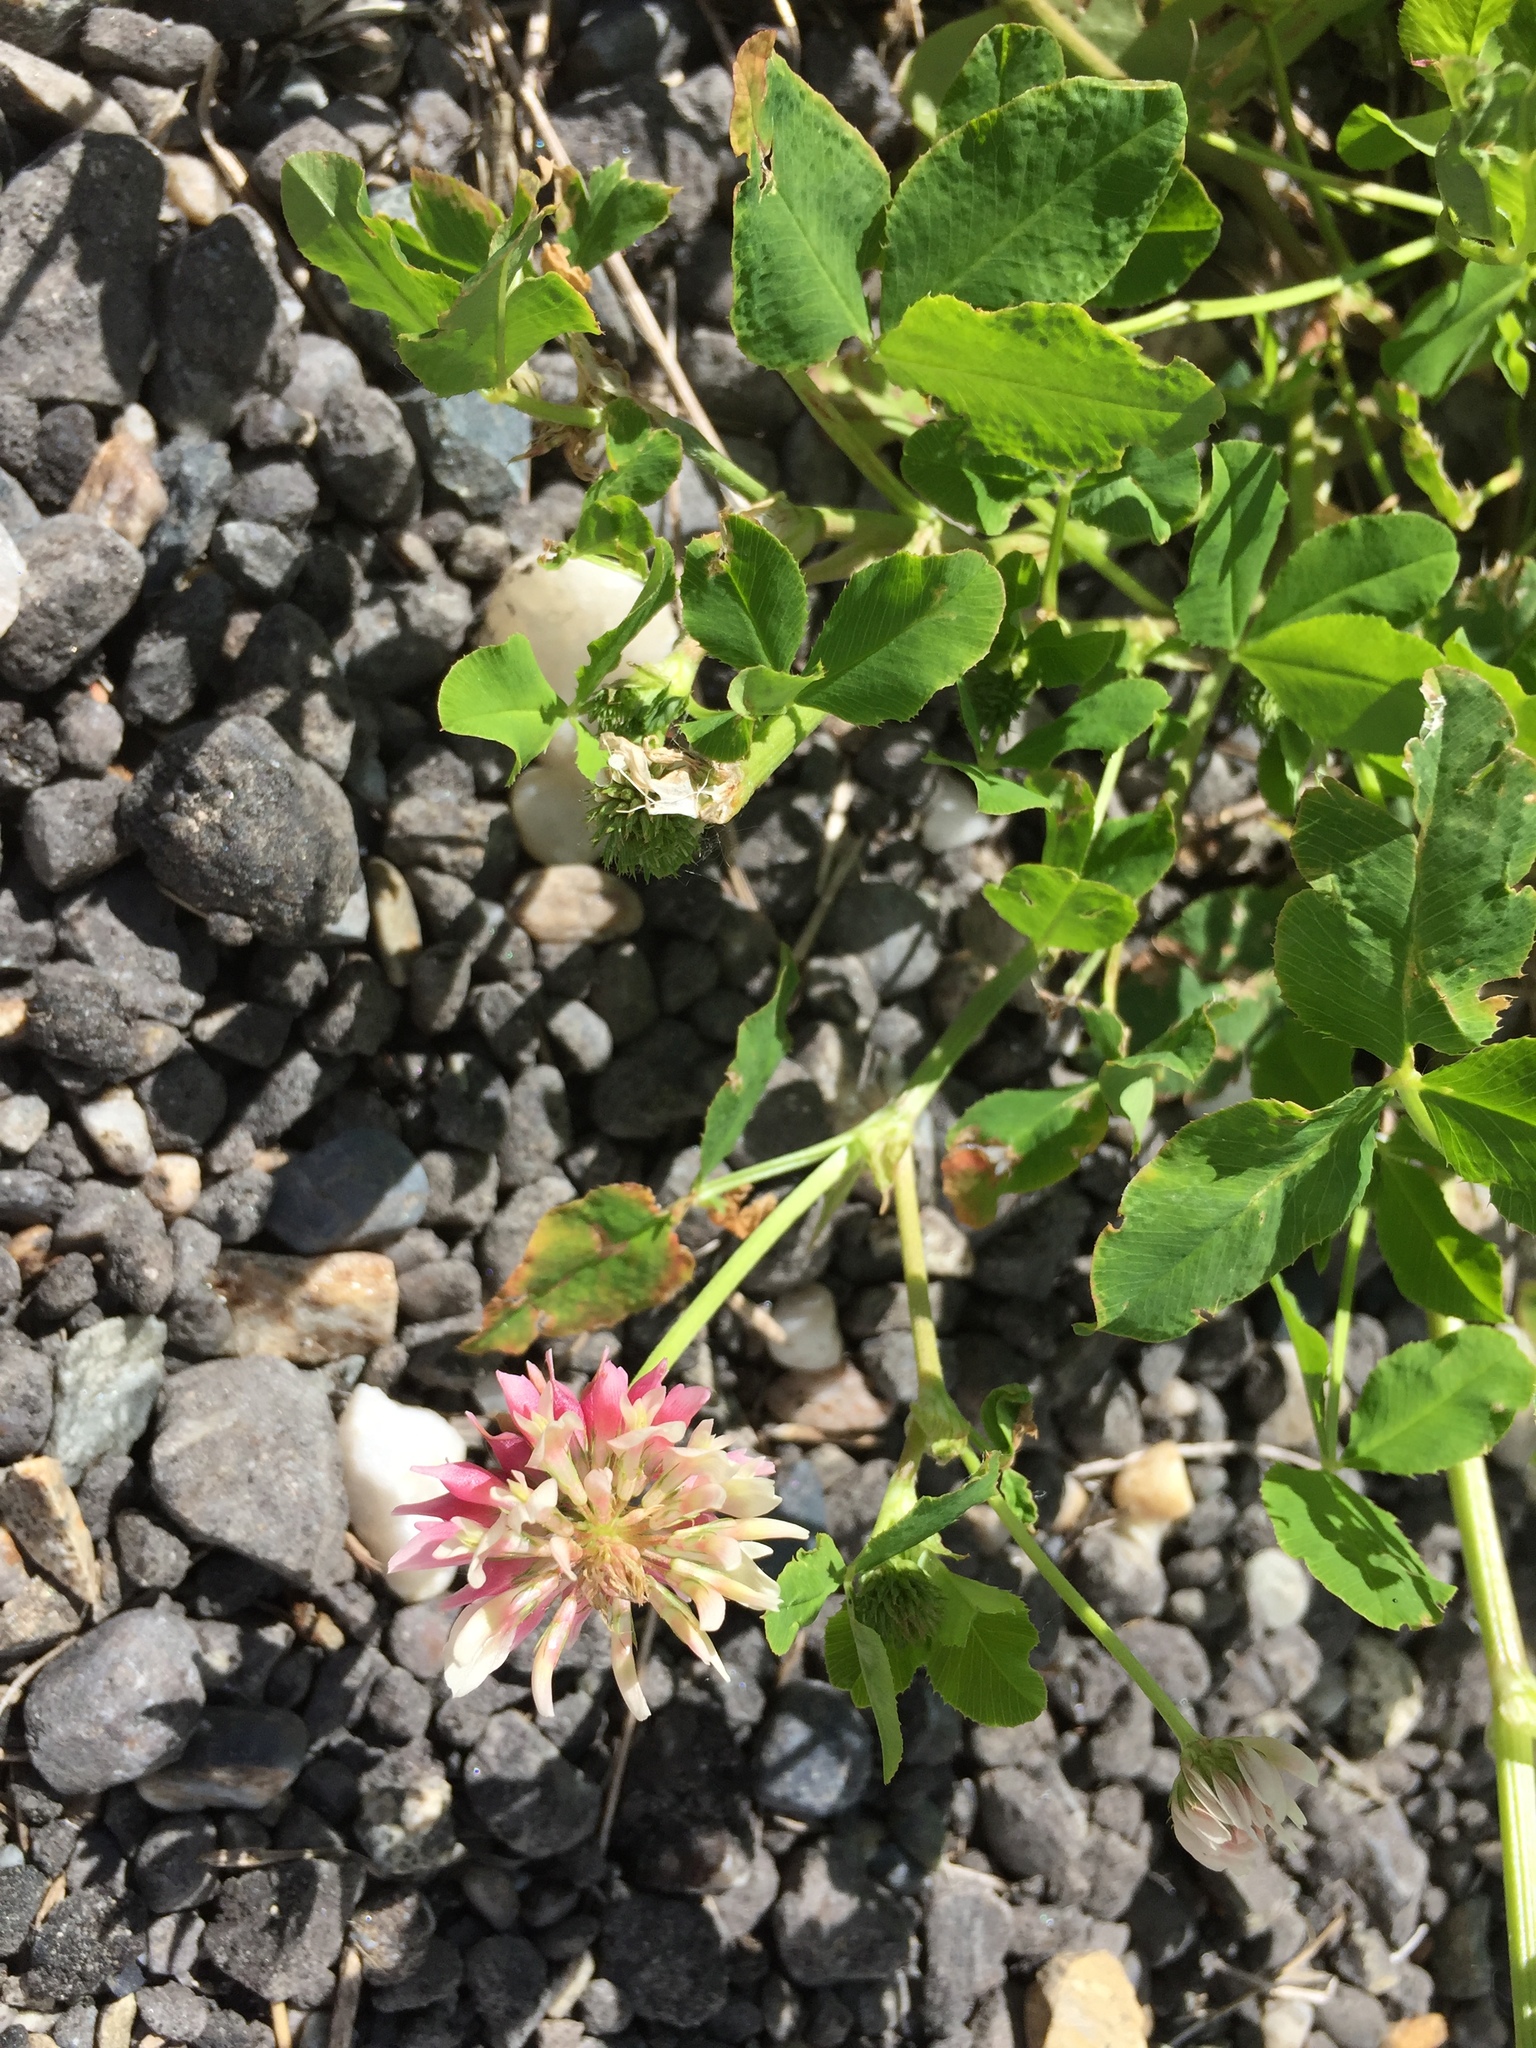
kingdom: Plantae
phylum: Tracheophyta
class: Magnoliopsida
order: Fabales
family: Fabaceae
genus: Trifolium
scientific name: Trifolium hybridum
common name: Alsike clover
